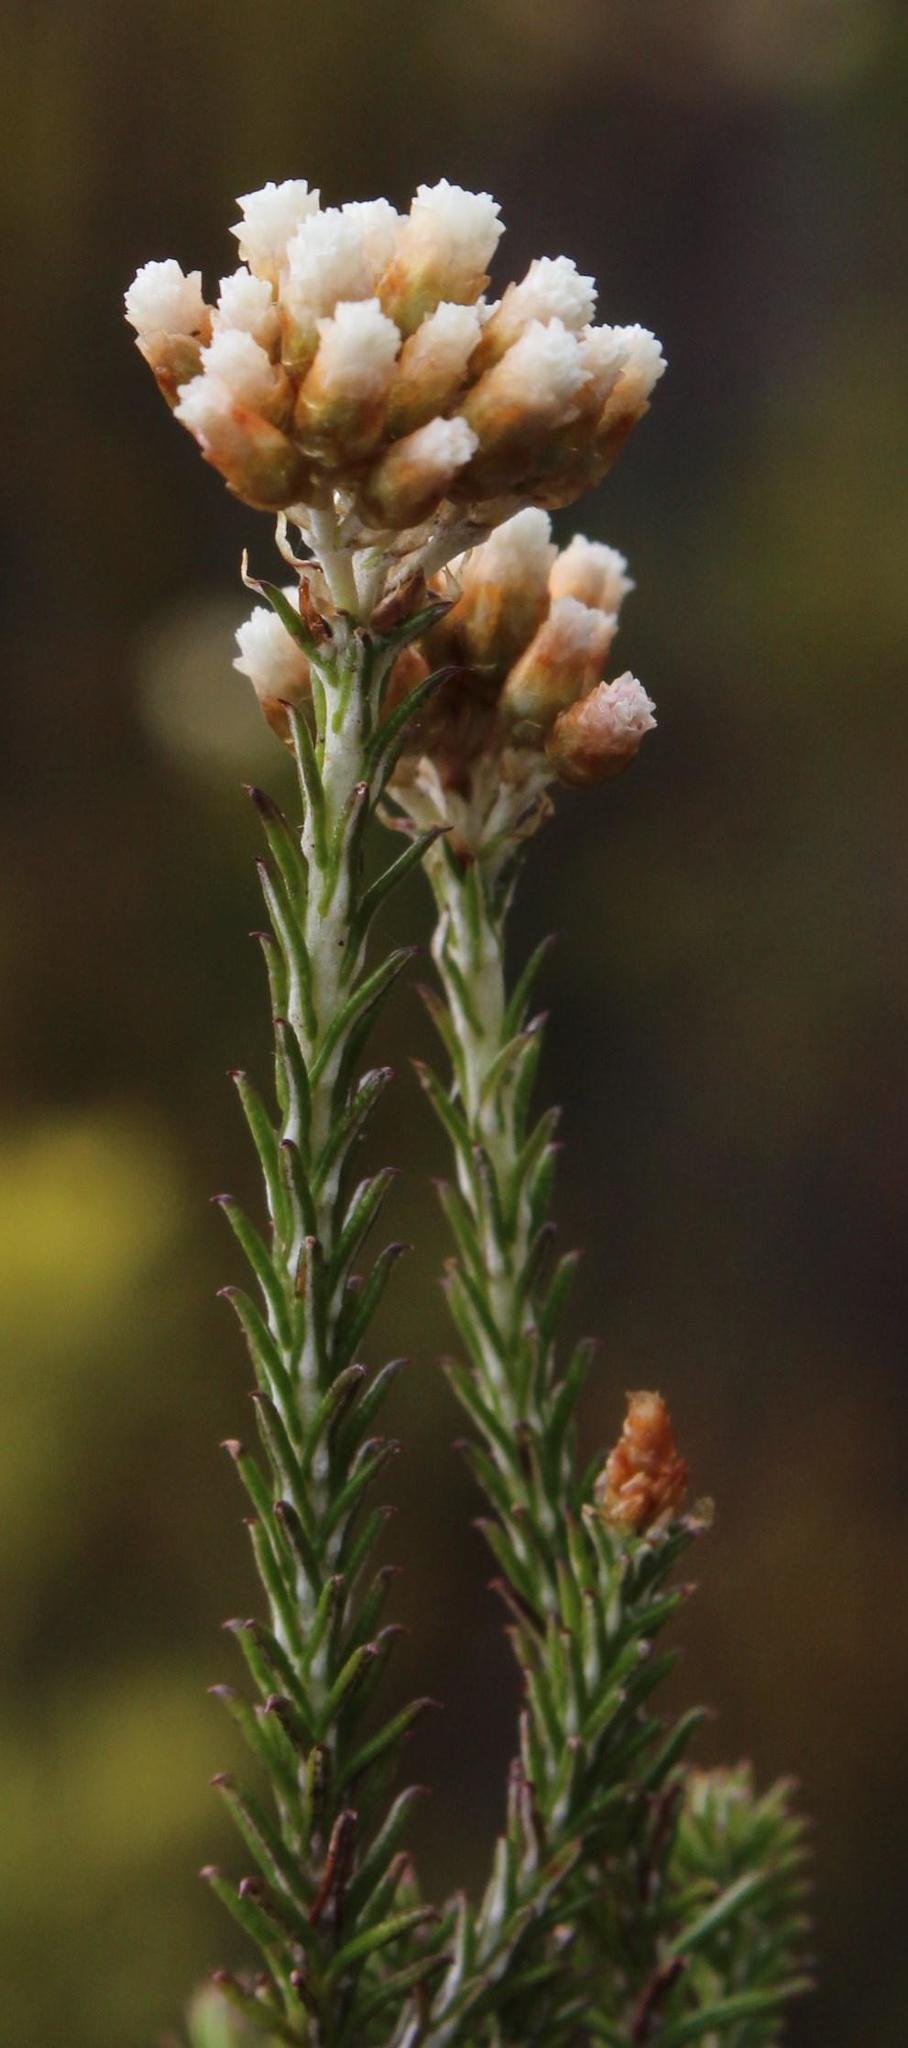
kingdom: Plantae
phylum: Tracheophyta
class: Magnoliopsida
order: Asterales
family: Asteraceae
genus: Helichrysum
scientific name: Helichrysum teretifolium
